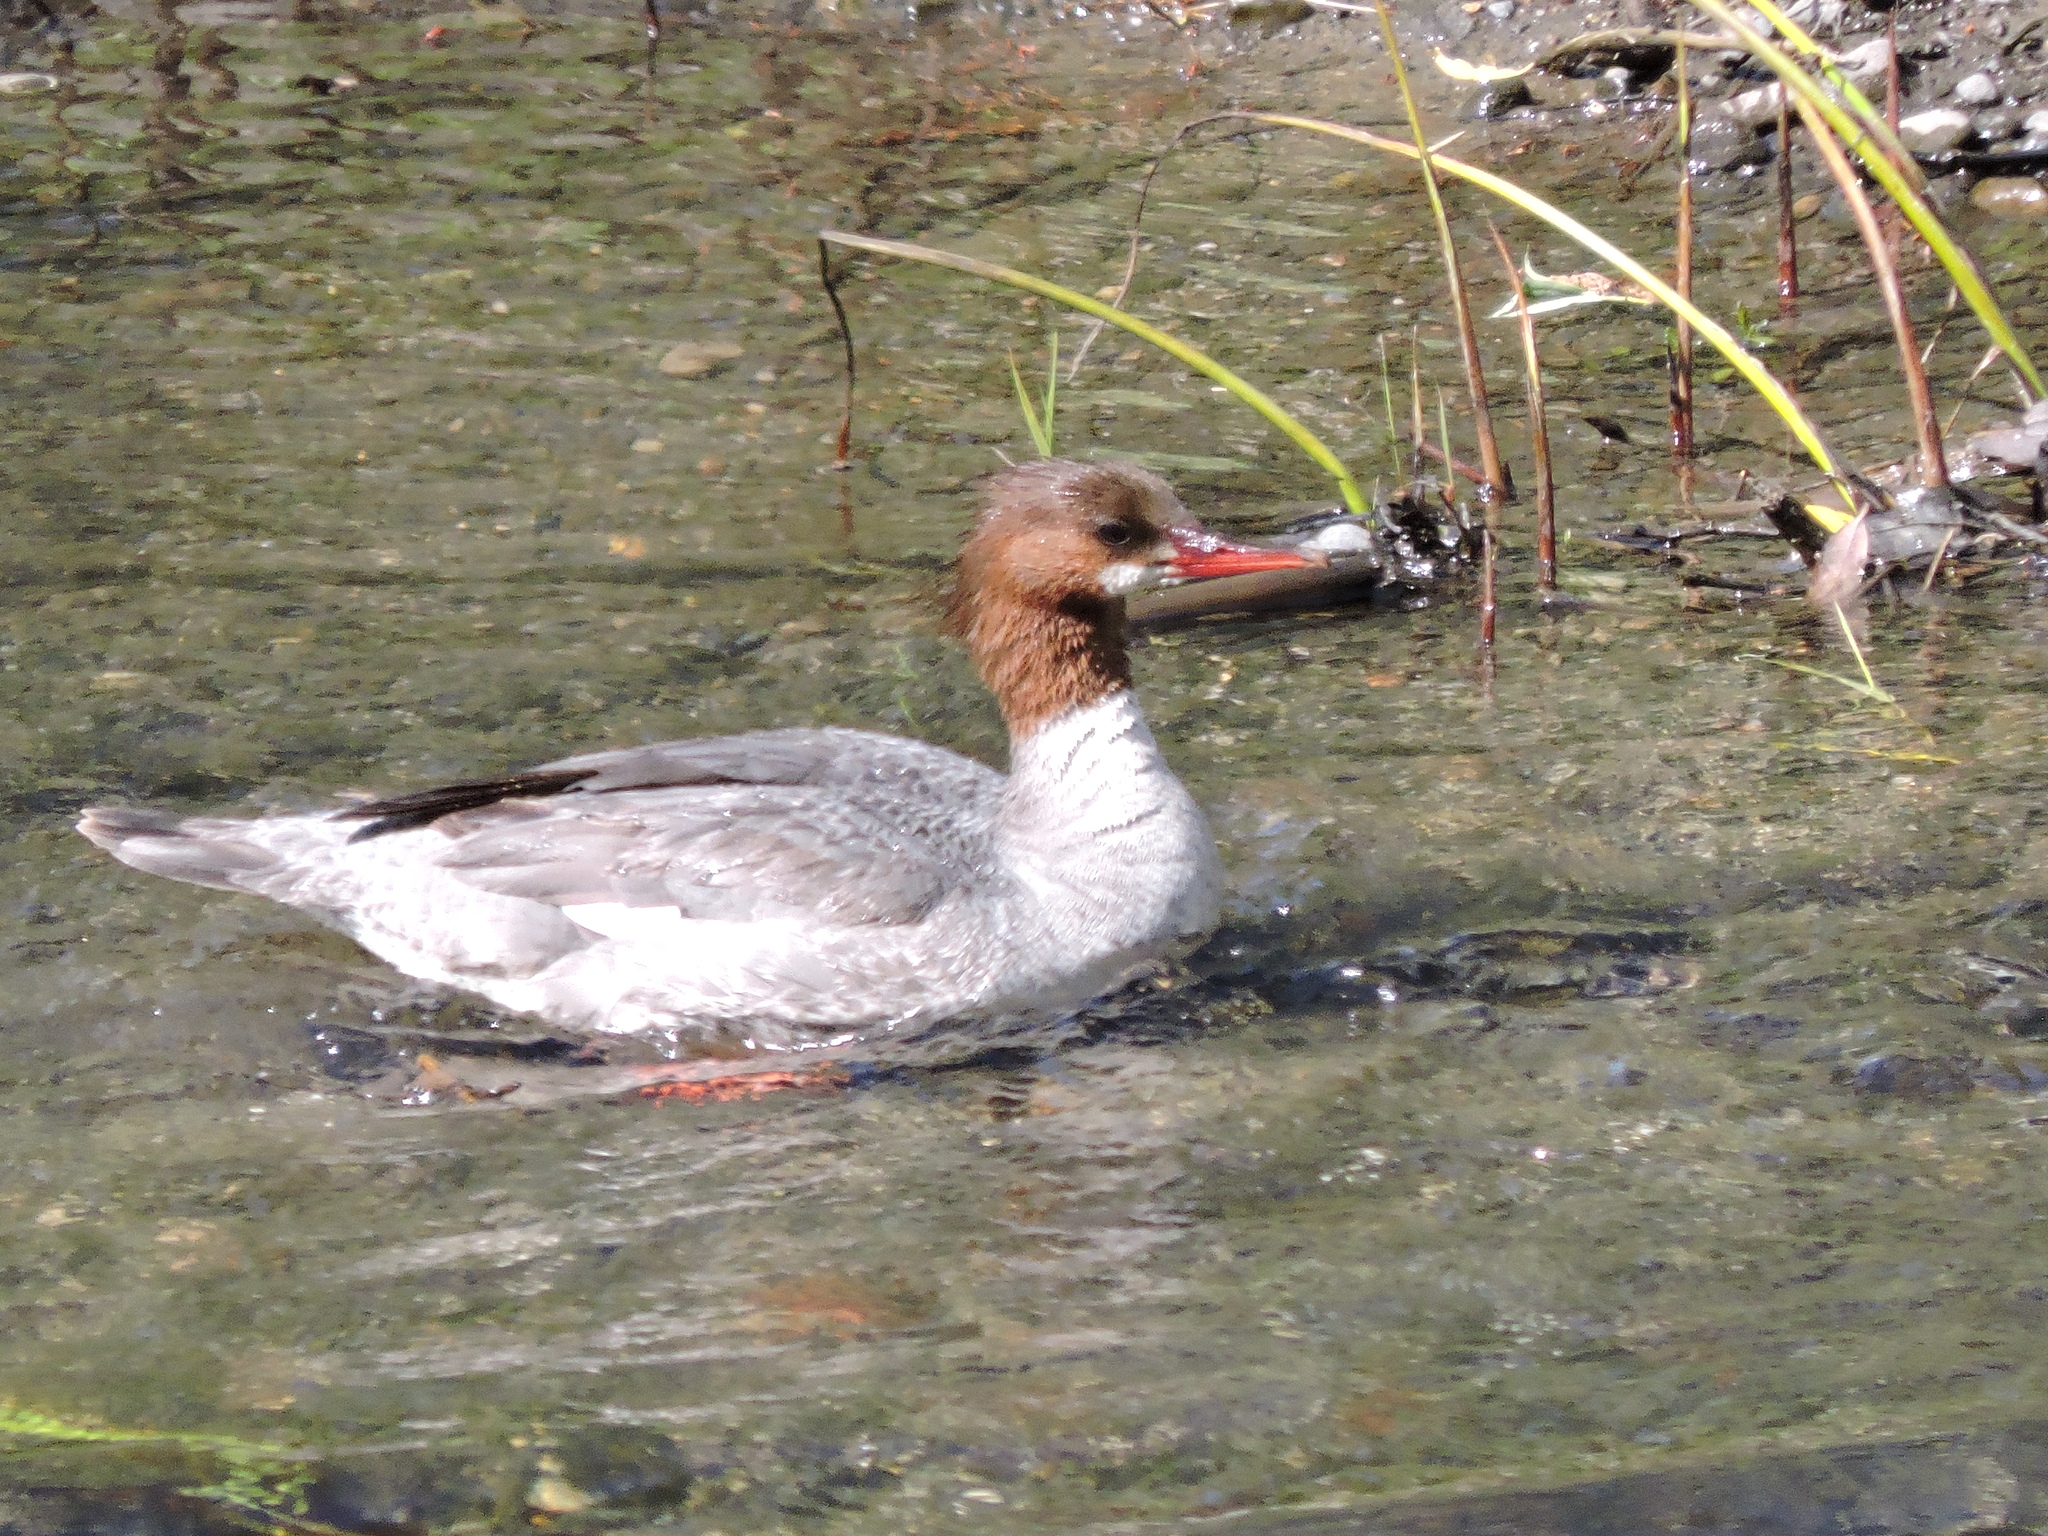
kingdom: Animalia
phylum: Chordata
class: Aves
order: Anseriformes
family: Anatidae
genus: Mergus
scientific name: Mergus merganser
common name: Common merganser
